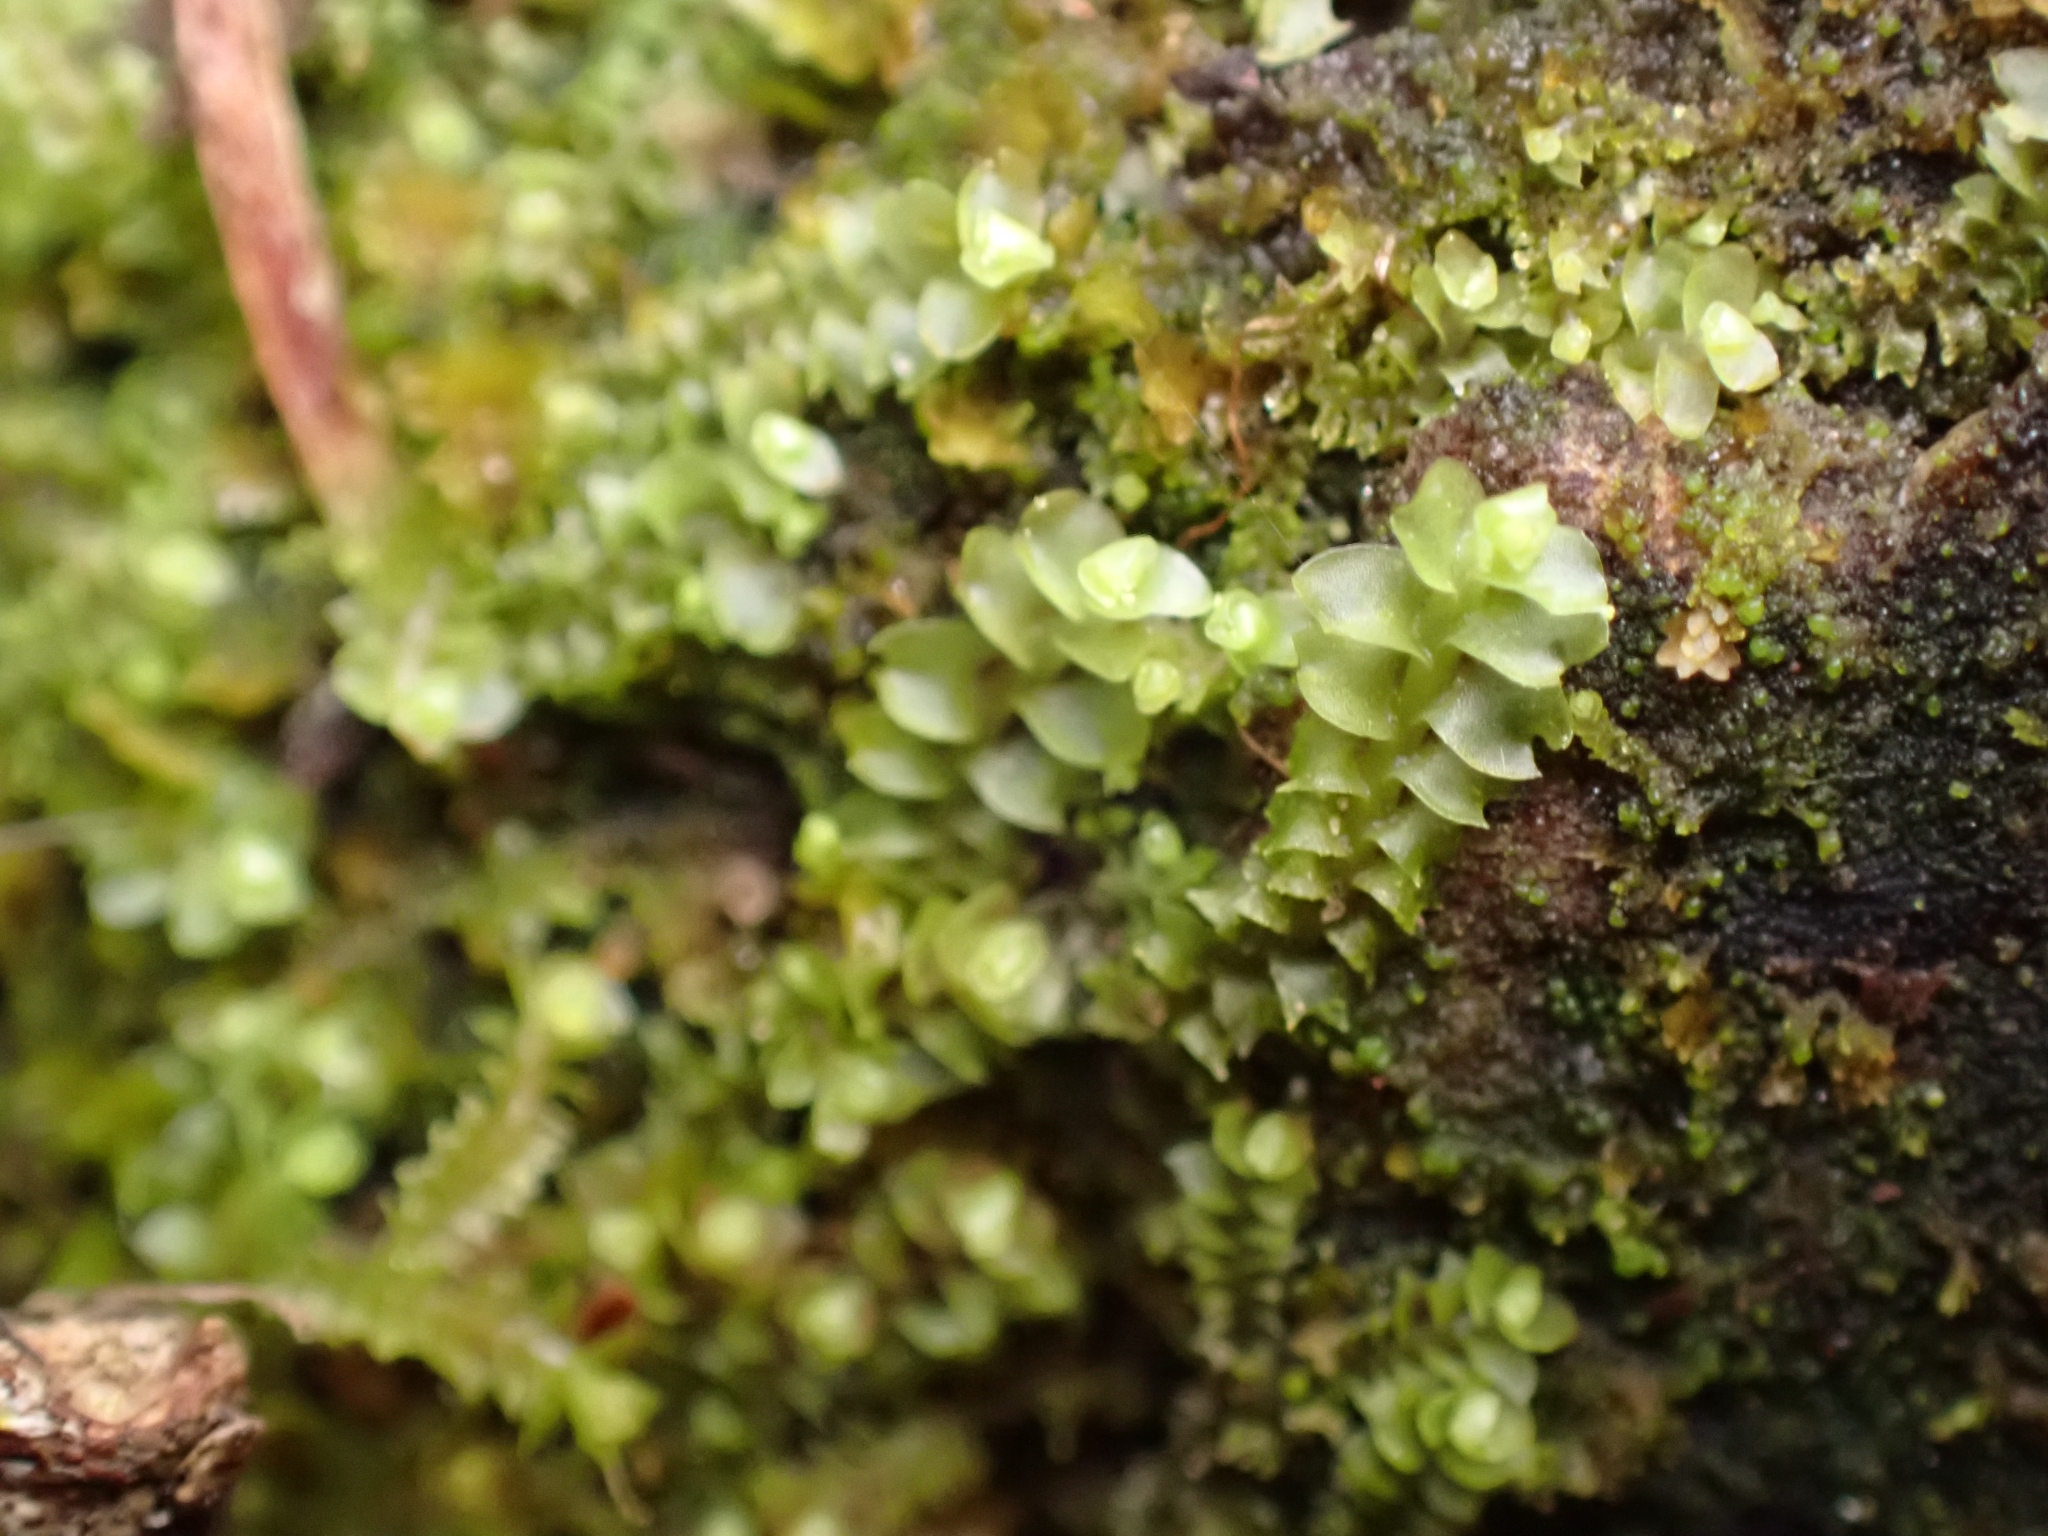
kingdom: Plantae
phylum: Marchantiophyta
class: Jungermanniopsida
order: Jungermanniales
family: Lophoziaceae
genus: Lophozia
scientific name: Lophozia ventricosa
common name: Tumid notchwort
